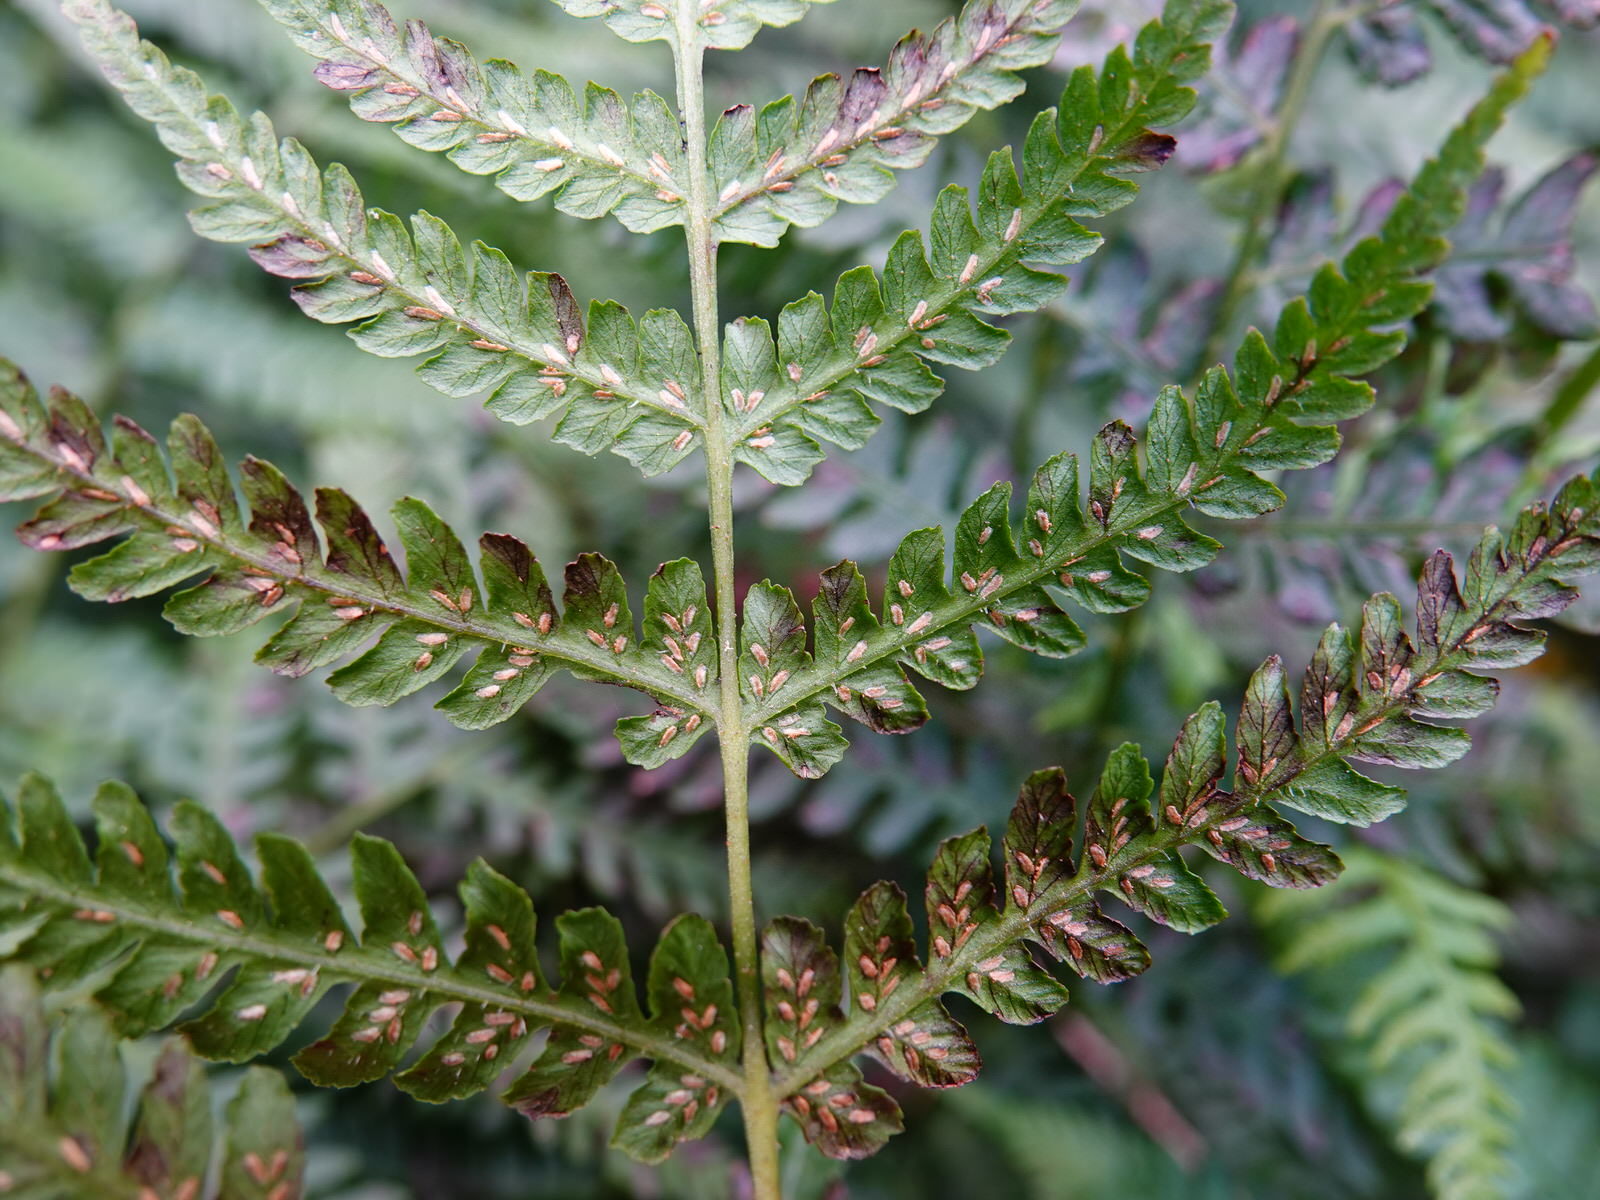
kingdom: Plantae
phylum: Tracheophyta
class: Polypodiopsida
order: Polypodiales
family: Athyriaceae
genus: Diplazium
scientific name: Diplazium congruum
